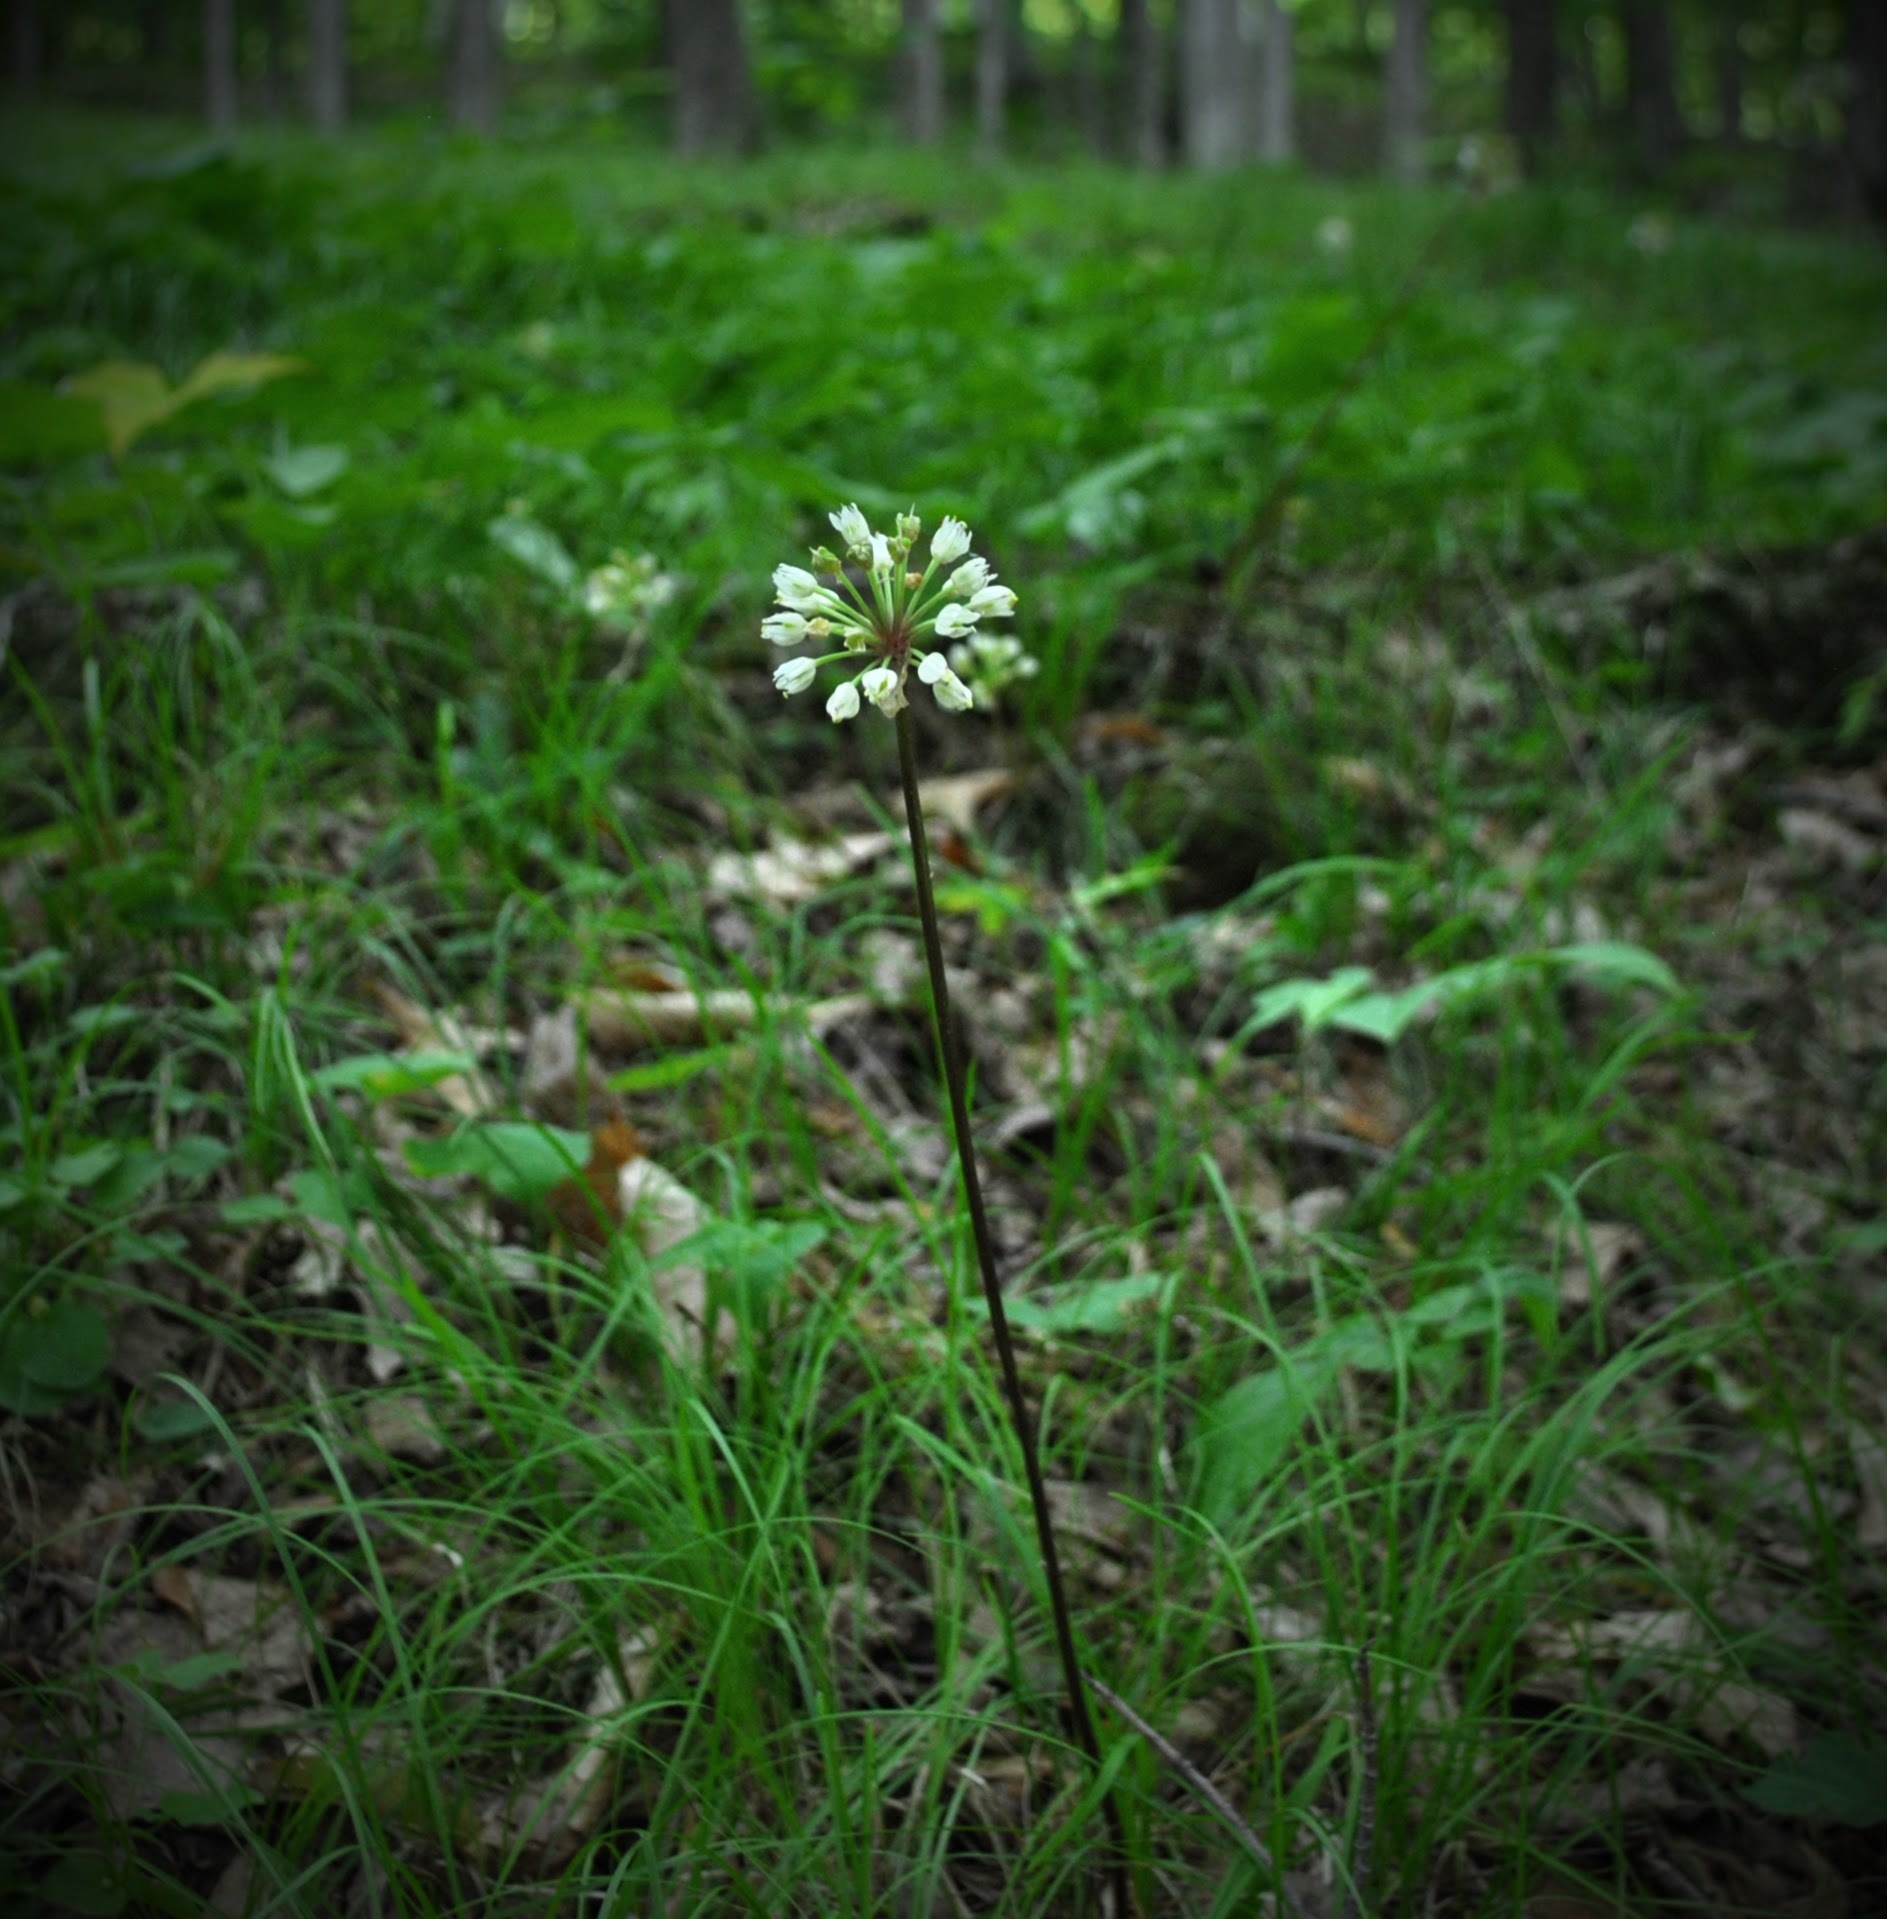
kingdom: Plantae
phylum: Tracheophyta
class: Liliopsida
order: Asparagales
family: Amaryllidaceae
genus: Allium
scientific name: Allium tricoccum
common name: Ramp
